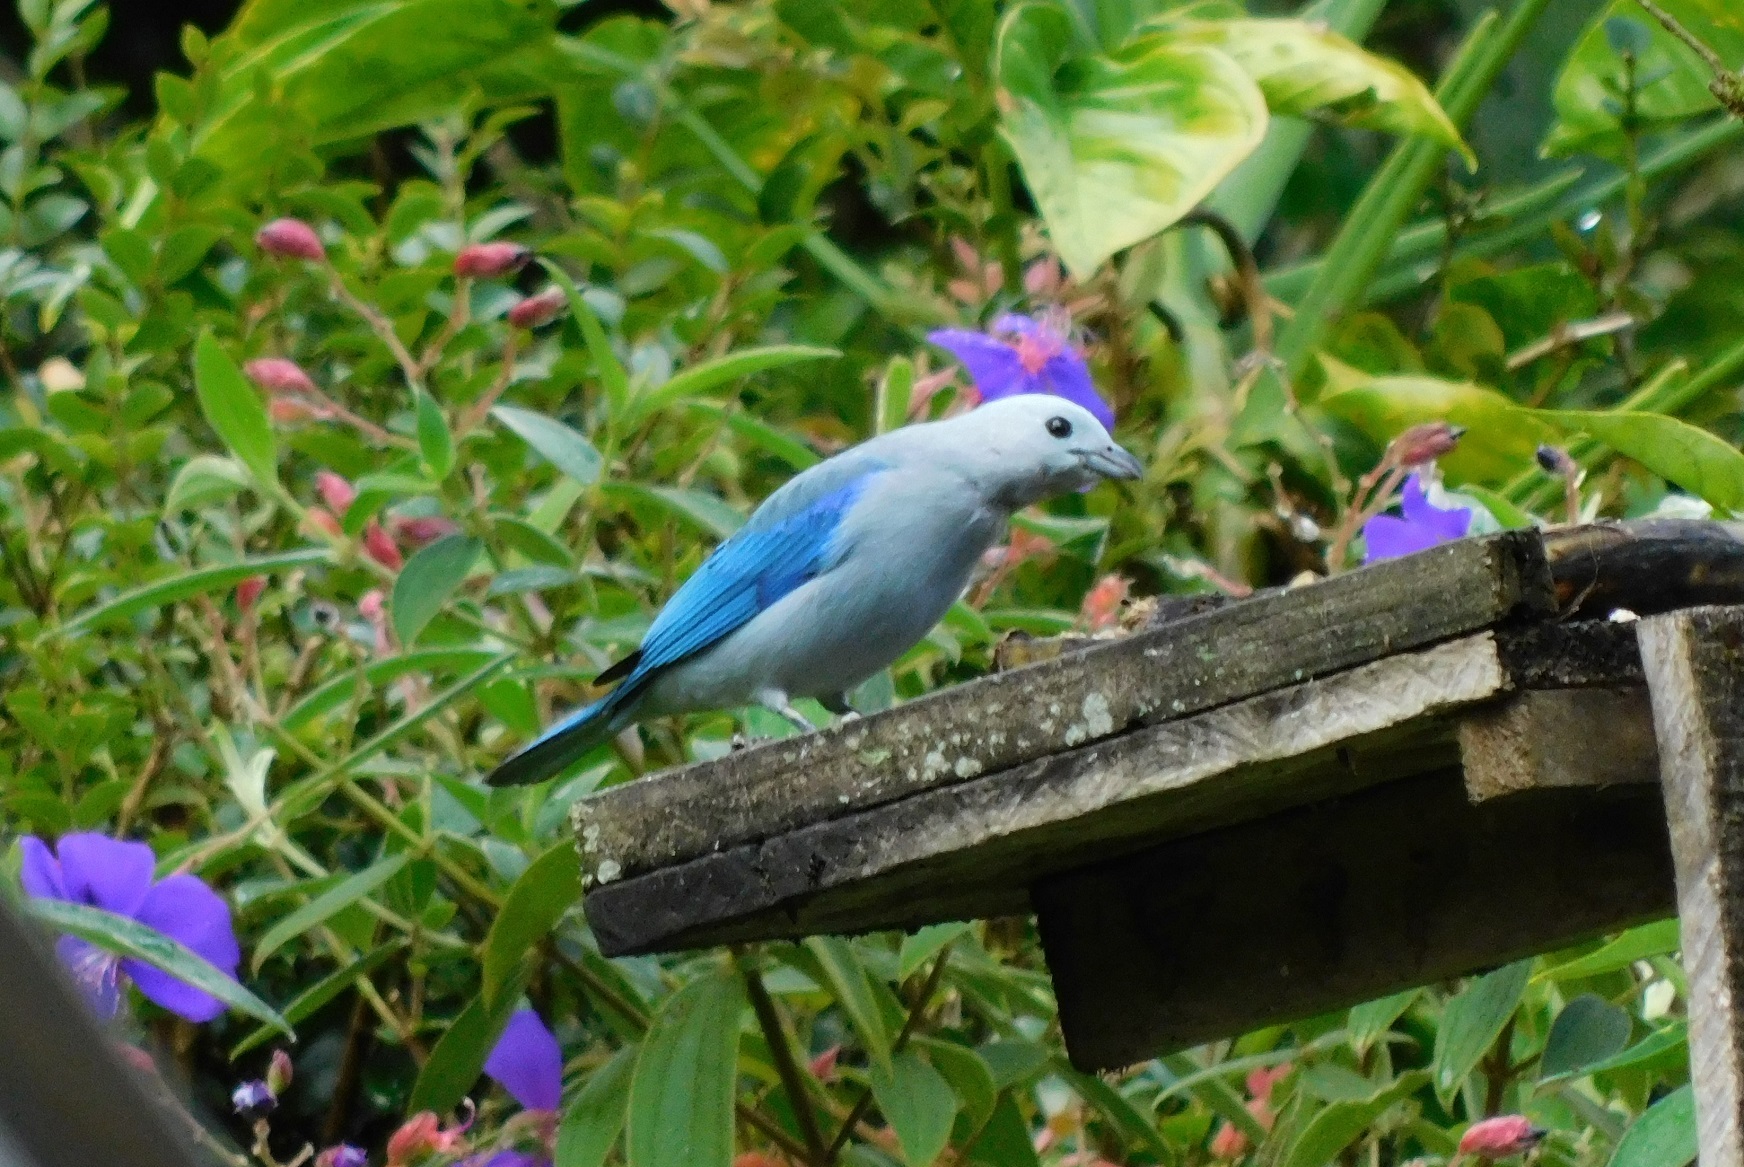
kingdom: Animalia
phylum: Chordata
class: Aves
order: Passeriformes
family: Thraupidae
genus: Thraupis
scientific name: Thraupis episcopus
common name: Blue-grey tanager
